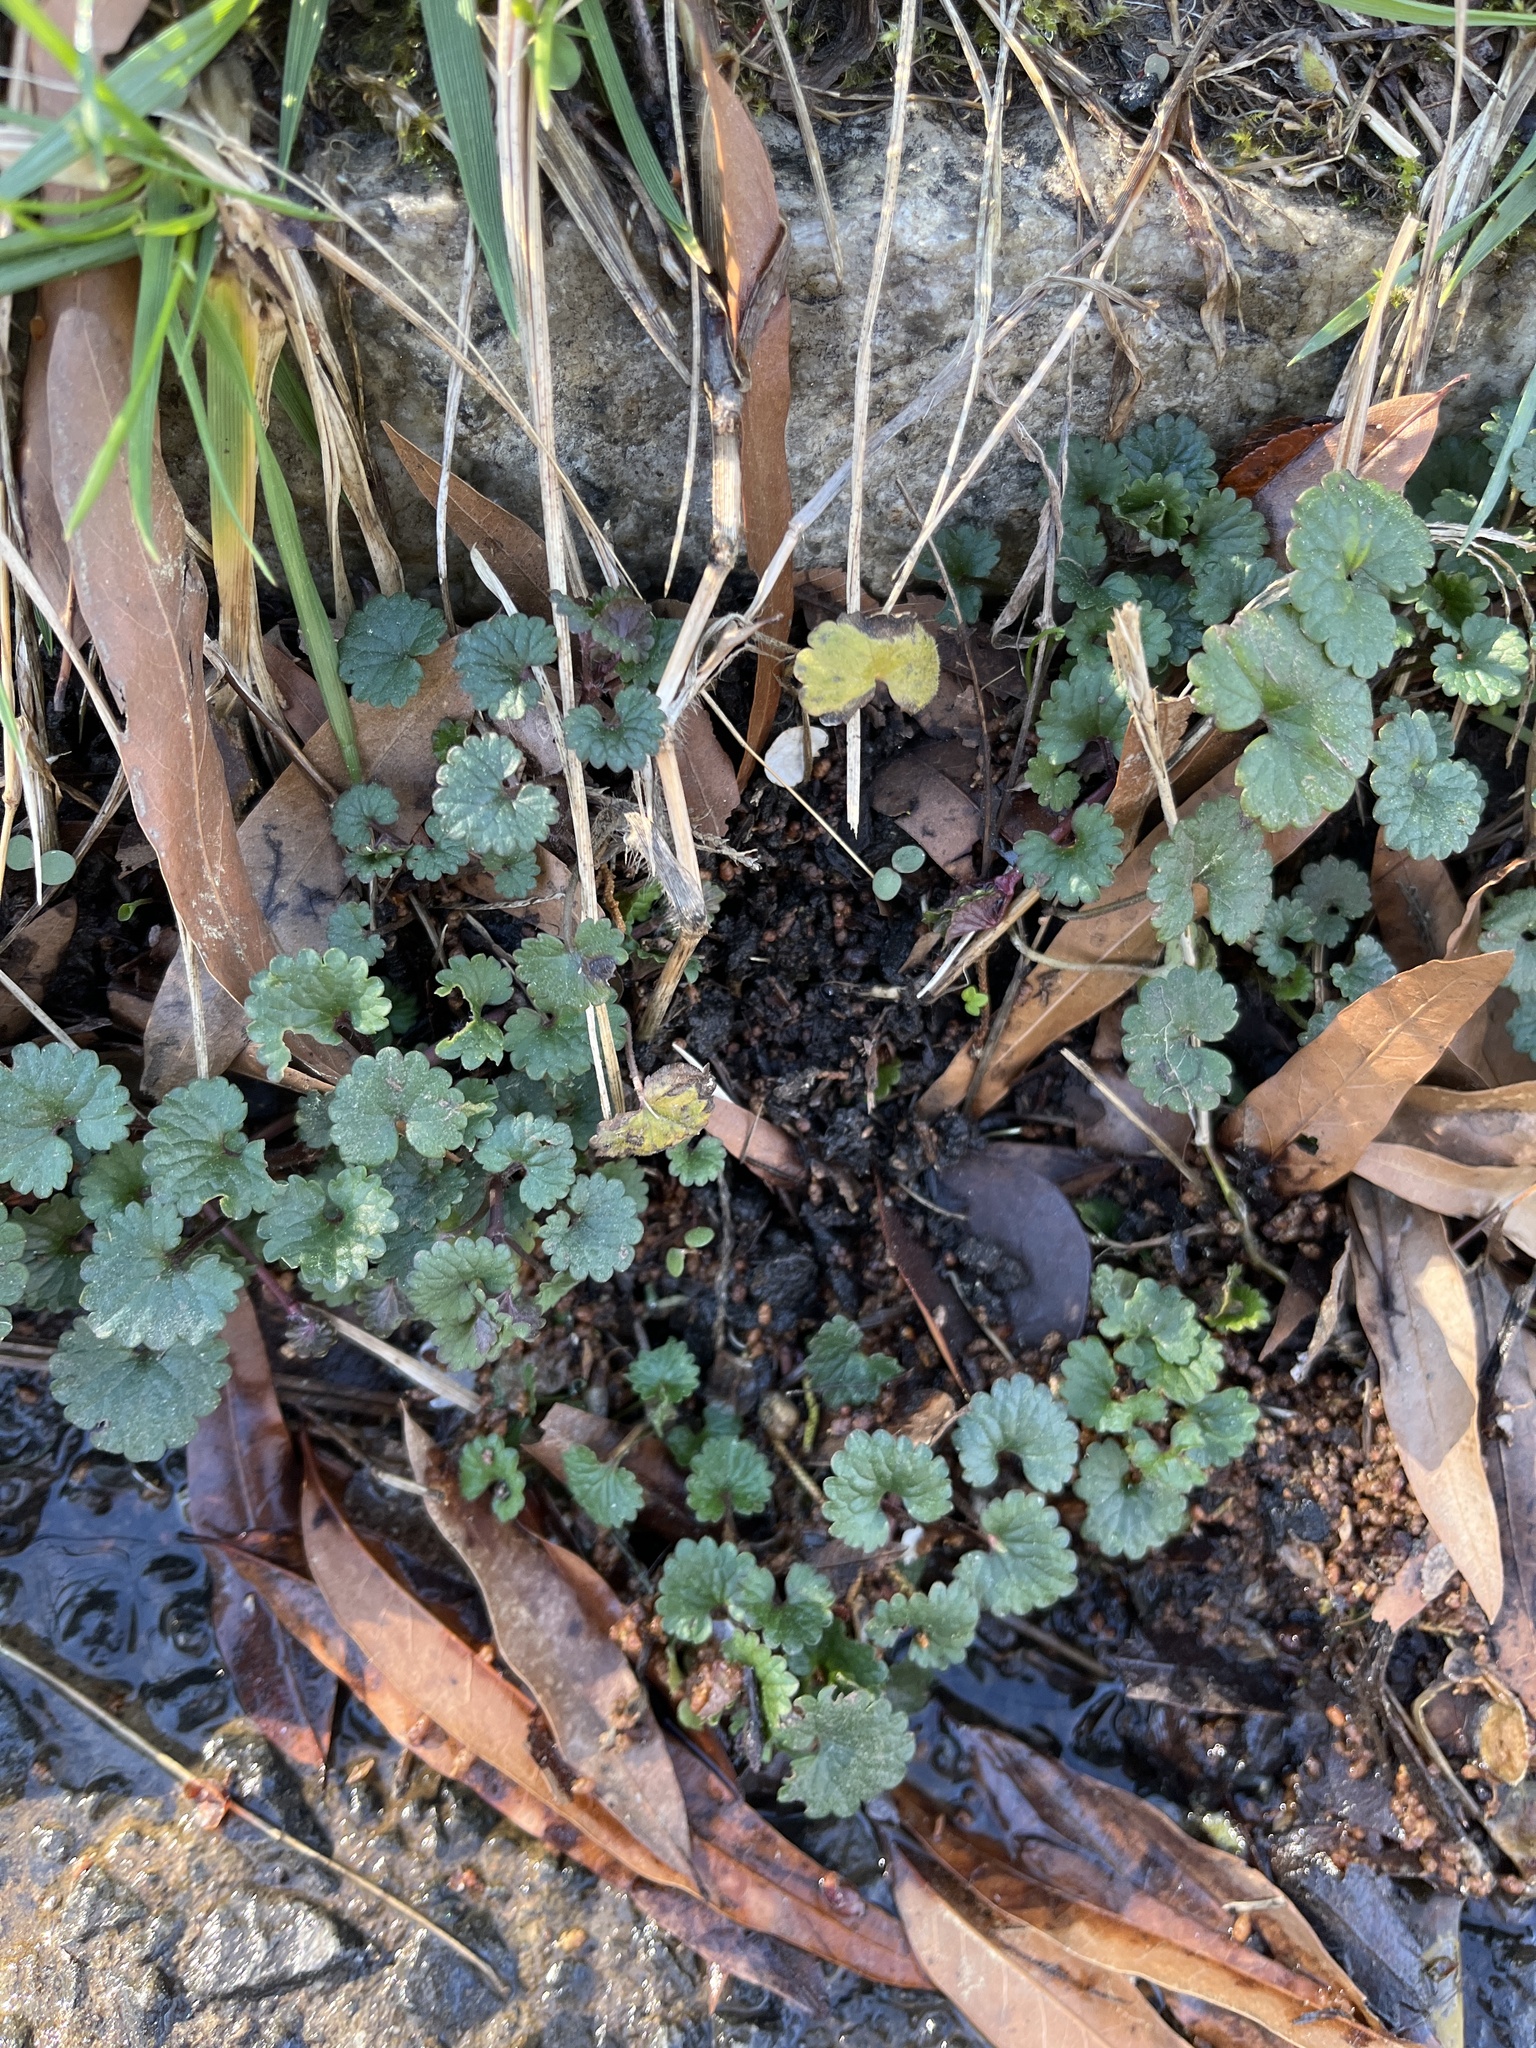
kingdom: Plantae
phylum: Tracheophyta
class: Magnoliopsida
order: Lamiales
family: Lamiaceae
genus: Glechoma
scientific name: Glechoma hederacea
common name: Ground ivy
